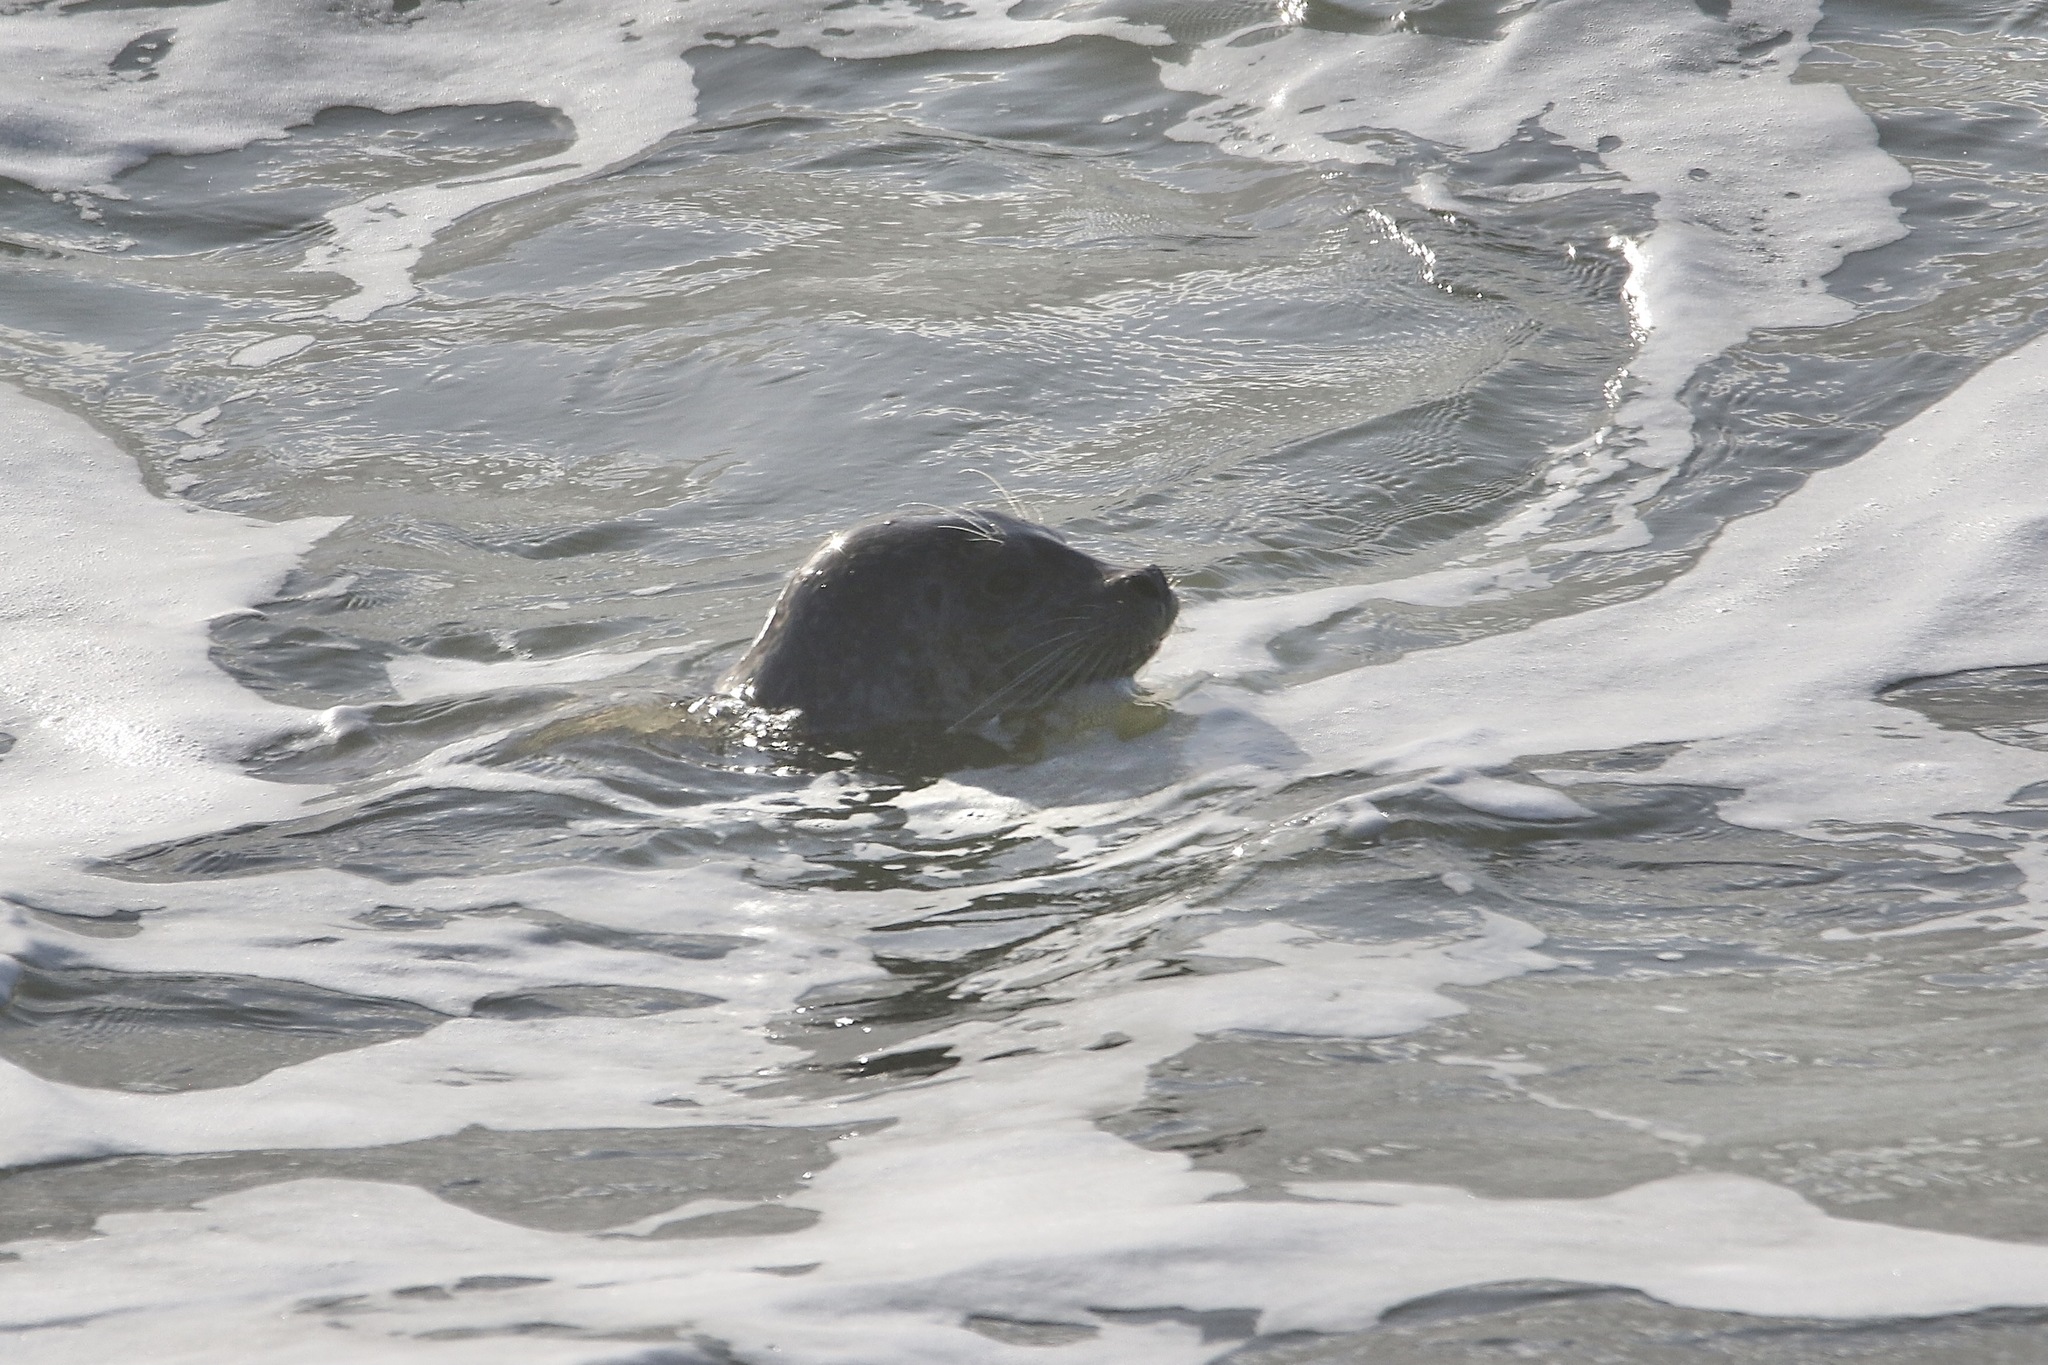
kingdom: Animalia
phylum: Chordata
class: Mammalia
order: Carnivora
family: Phocidae
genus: Phoca
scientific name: Phoca vitulina
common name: Harbor seal
